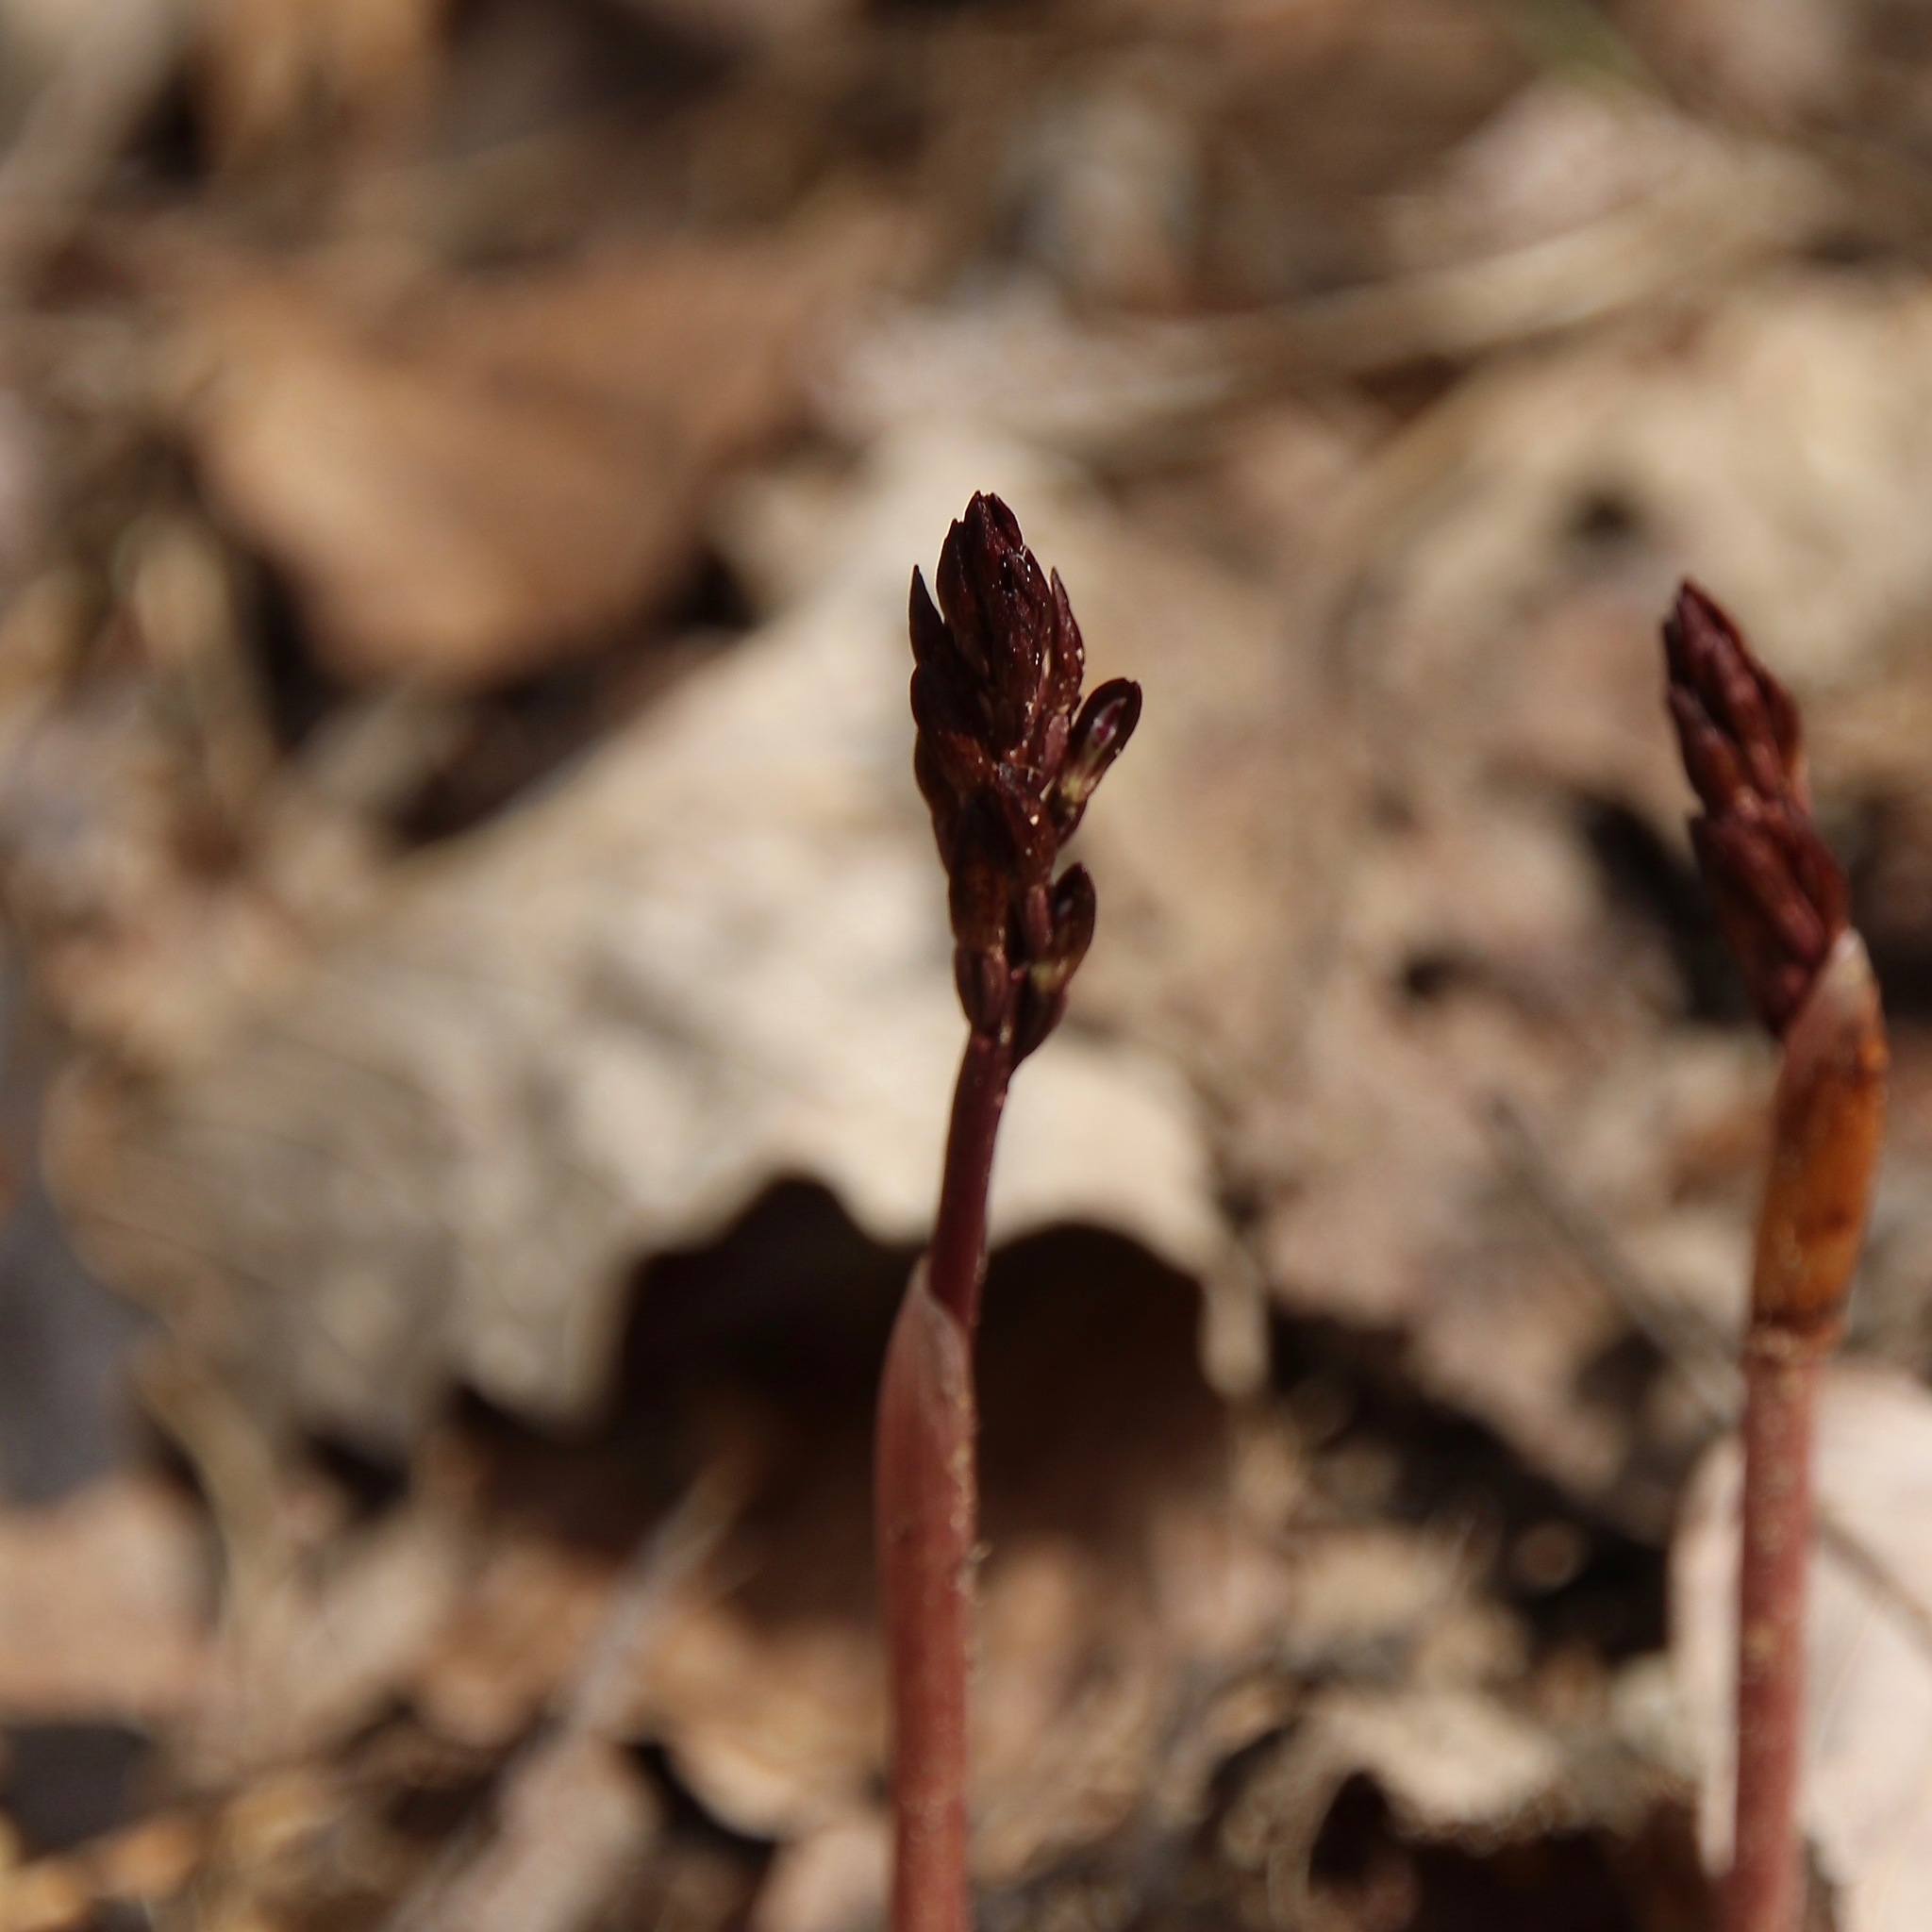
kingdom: Plantae
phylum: Tracheophyta
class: Liliopsida
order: Asparagales
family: Orchidaceae
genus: Corallorhiza
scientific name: Corallorhiza wisteriana
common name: Spring coralroot
